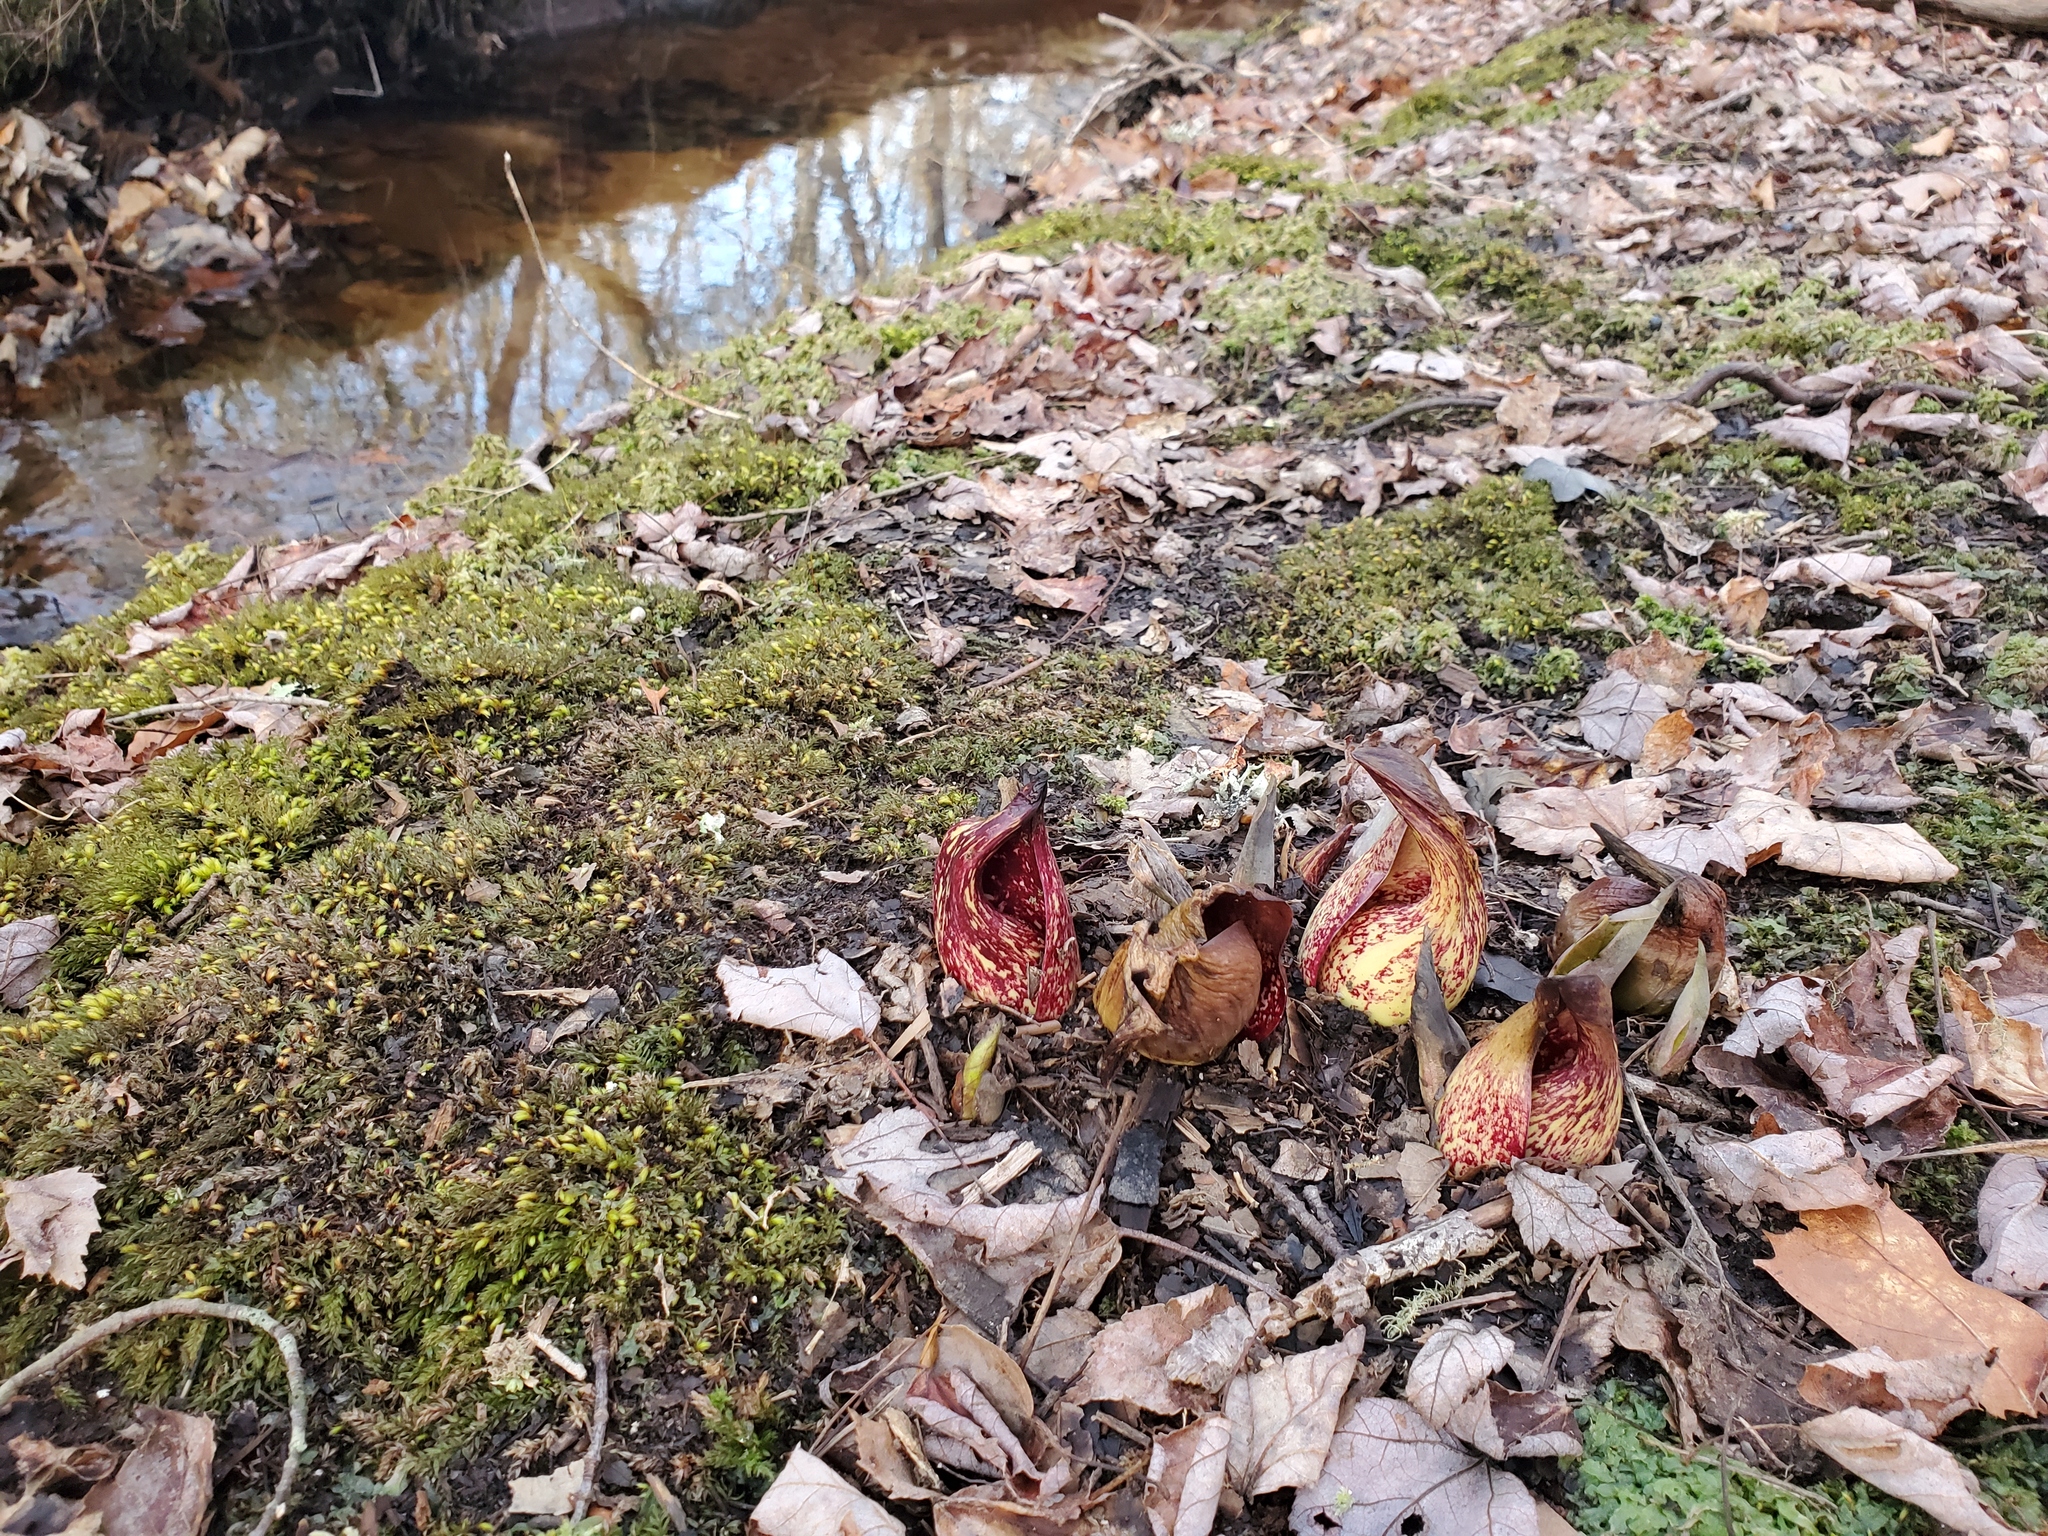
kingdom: Plantae
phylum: Tracheophyta
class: Liliopsida
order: Alismatales
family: Araceae
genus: Symplocarpus
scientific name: Symplocarpus foetidus
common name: Eastern skunk cabbage
